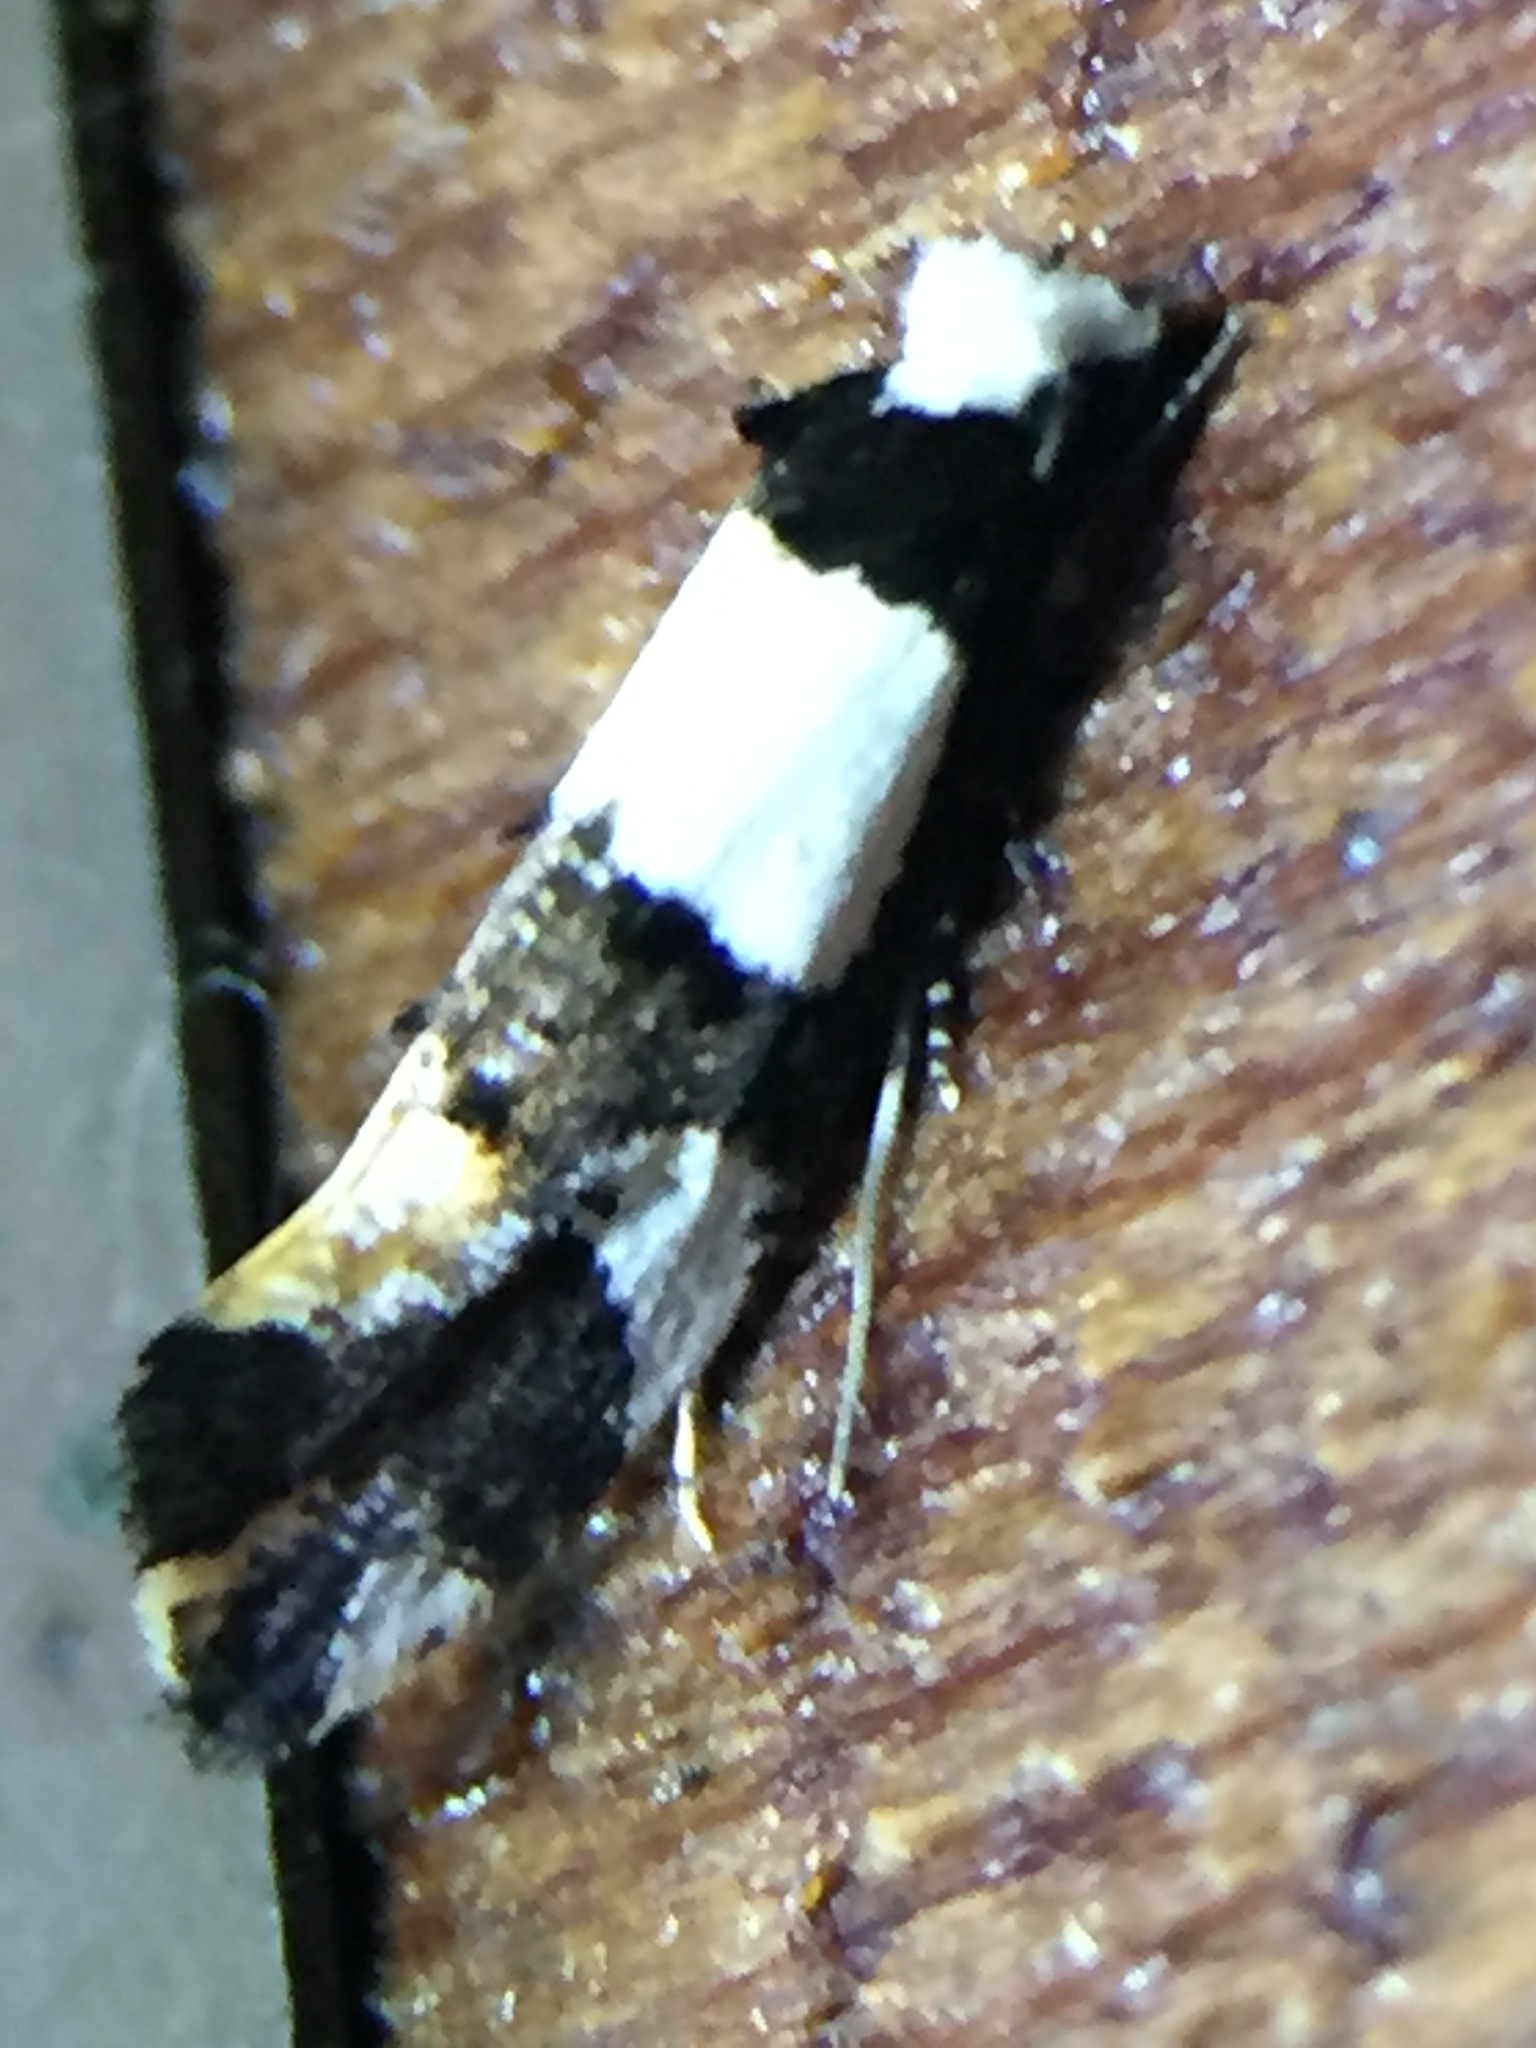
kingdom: Animalia
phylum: Arthropoda
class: Insecta
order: Lepidoptera
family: Tineidae
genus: Monopis
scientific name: Monopis icterogastra
